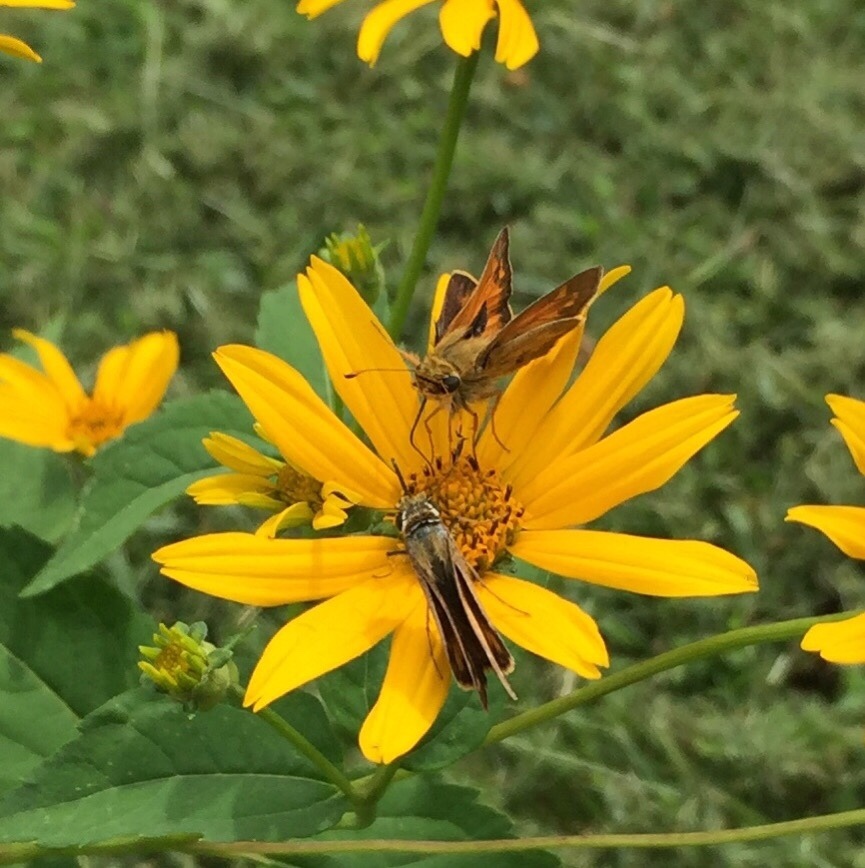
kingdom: Animalia
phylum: Arthropoda
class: Insecta
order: Lepidoptera
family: Hesperiidae
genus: Atalopedes
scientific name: Atalopedes
